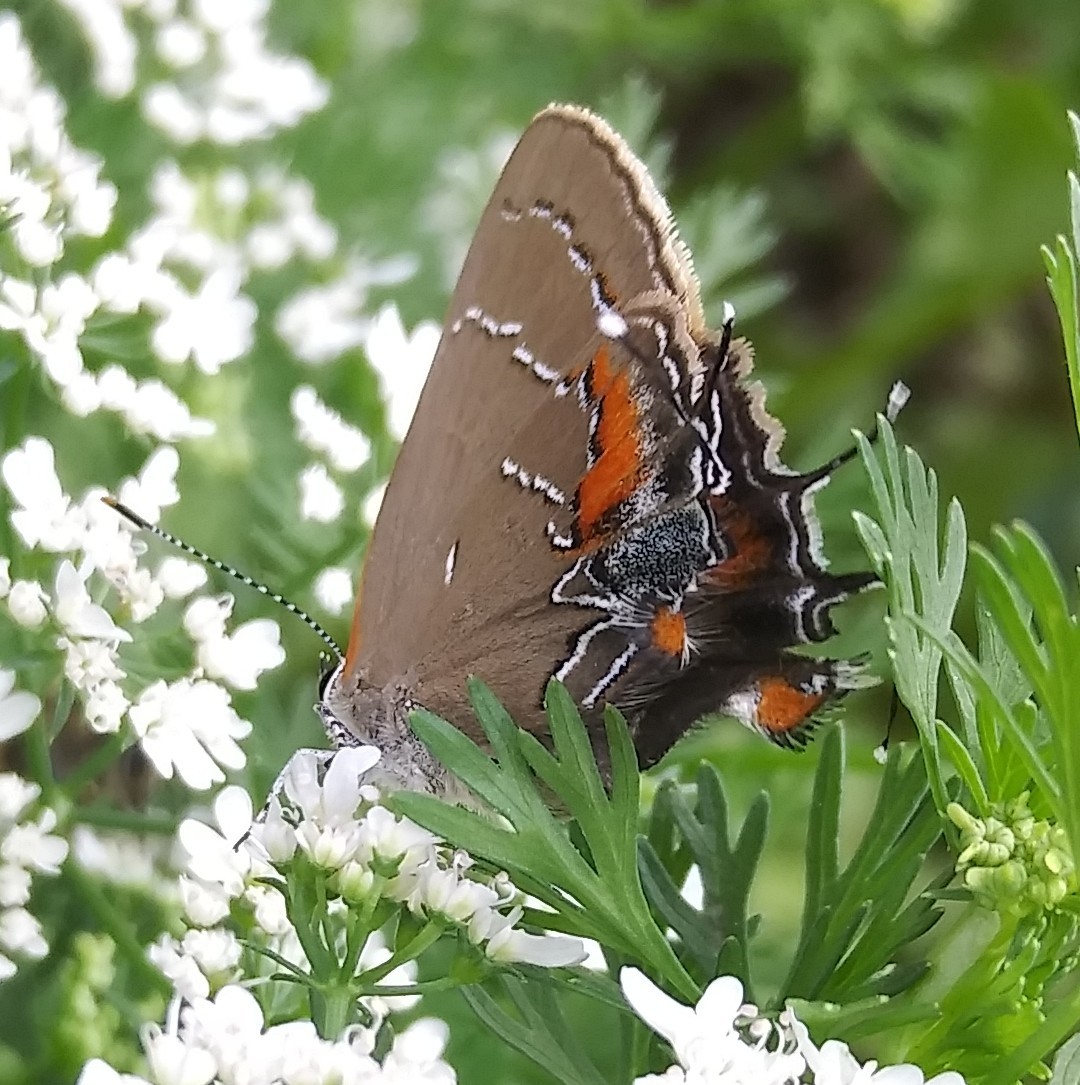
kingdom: Animalia
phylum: Arthropoda
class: Insecta
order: Lepidoptera
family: Lycaenidae
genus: Fixsenia
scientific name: Fixsenia favonius
